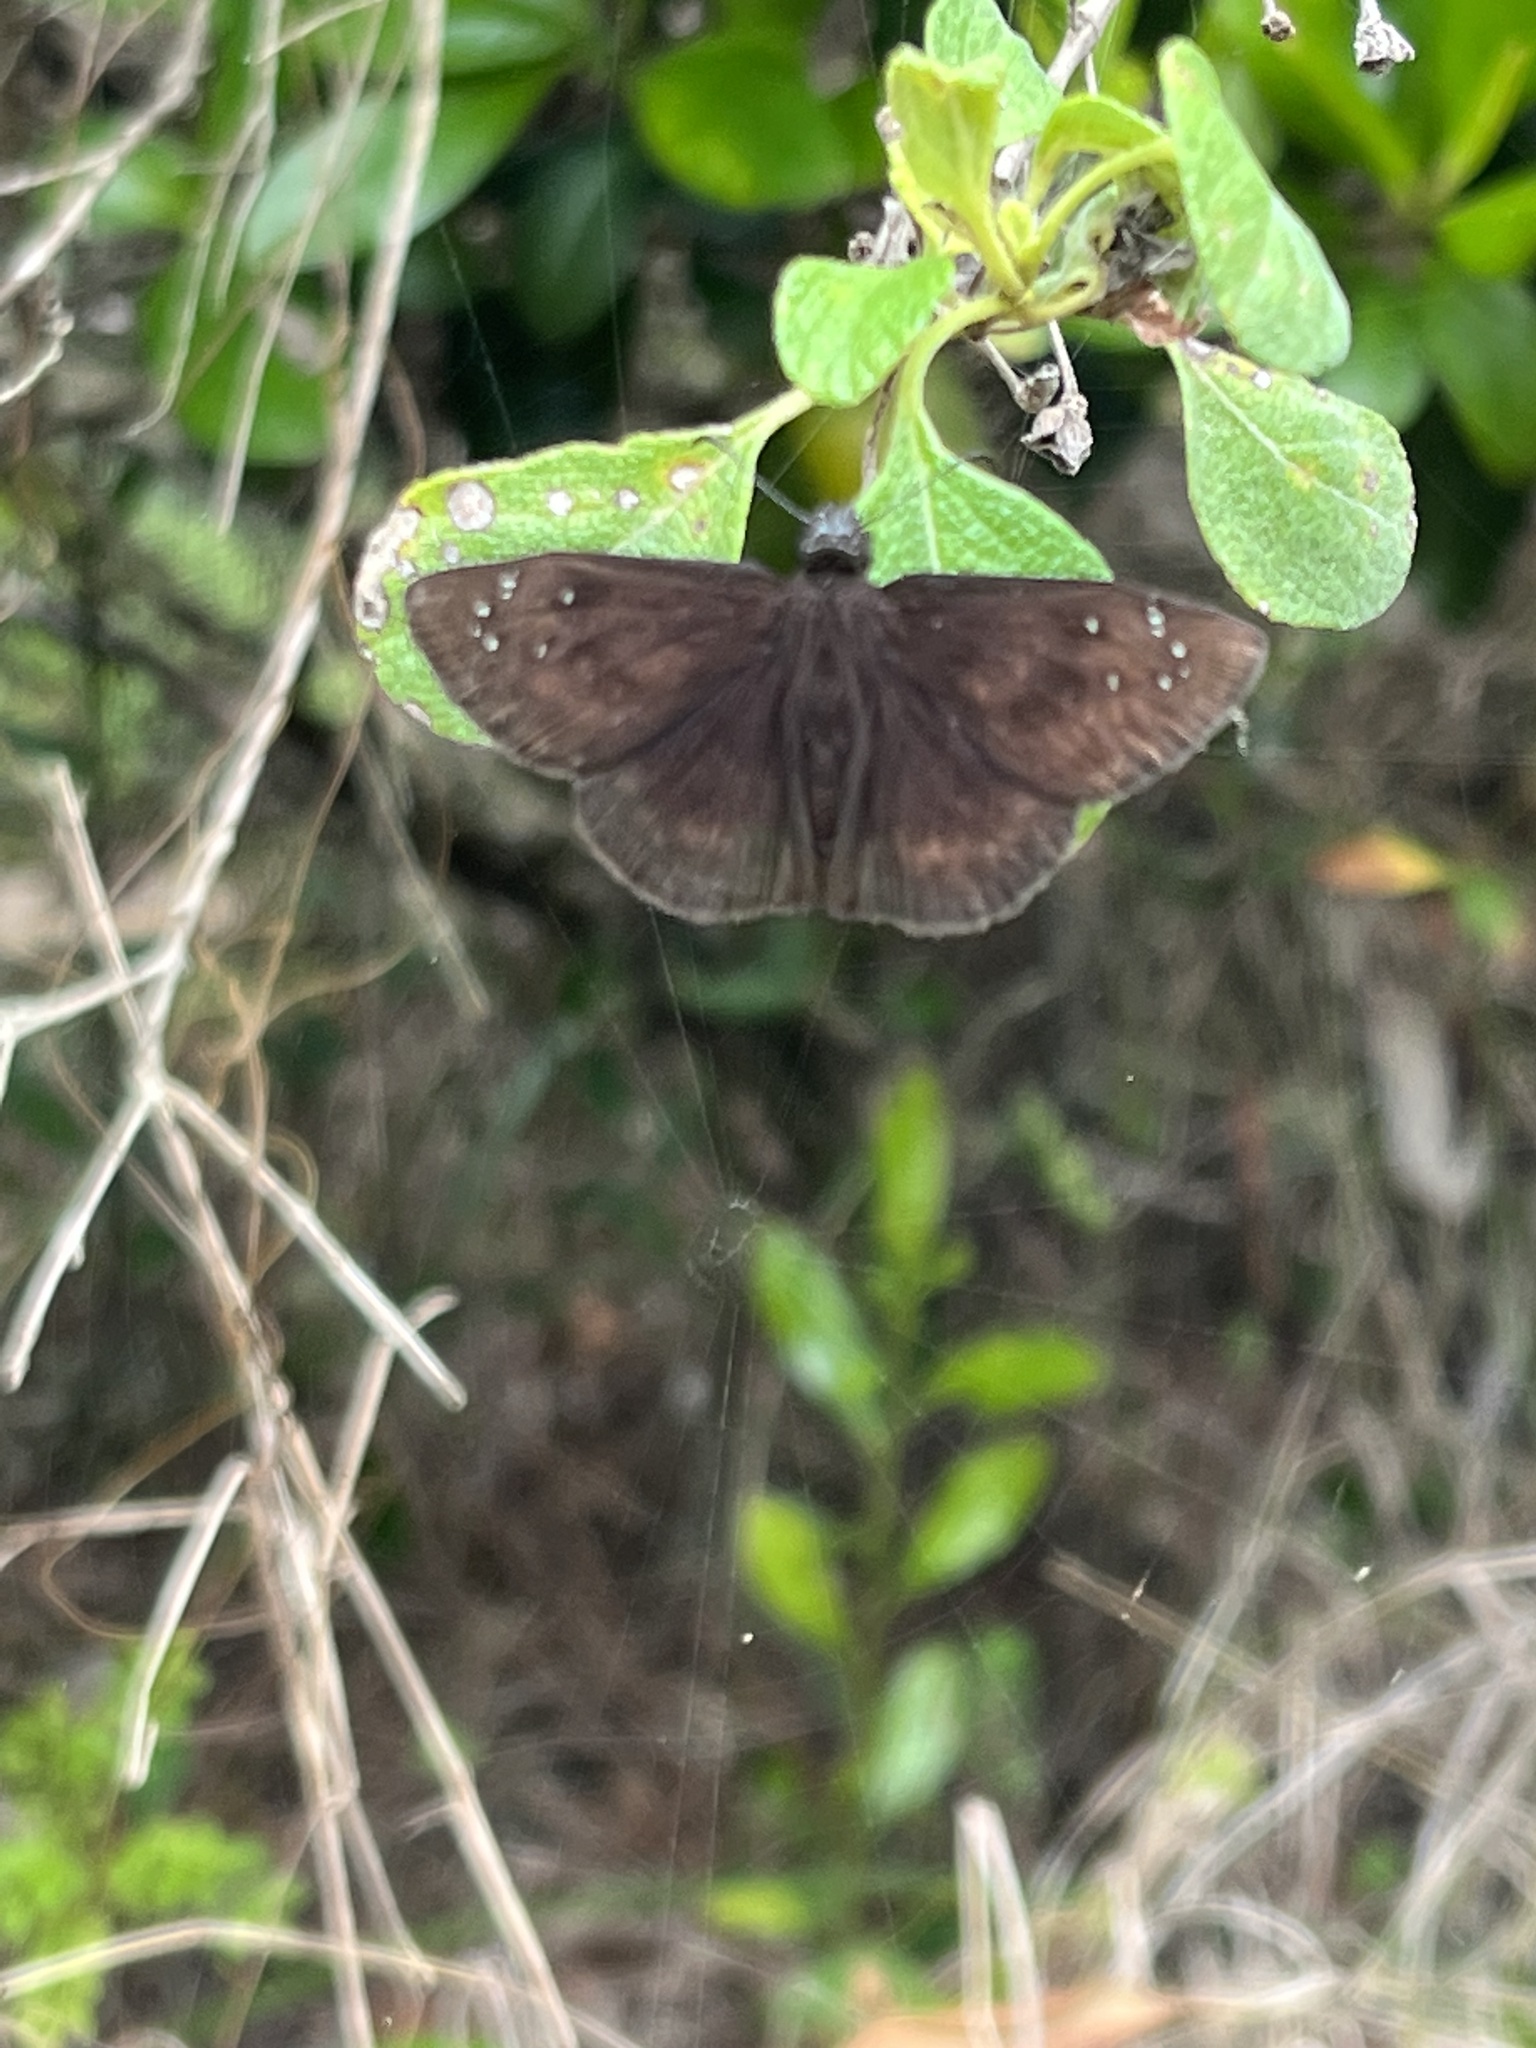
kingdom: Animalia
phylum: Arthropoda
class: Insecta
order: Lepidoptera
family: Hesperiidae
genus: Ephyriades
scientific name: Ephyriades brunnea
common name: Florida duskywing
